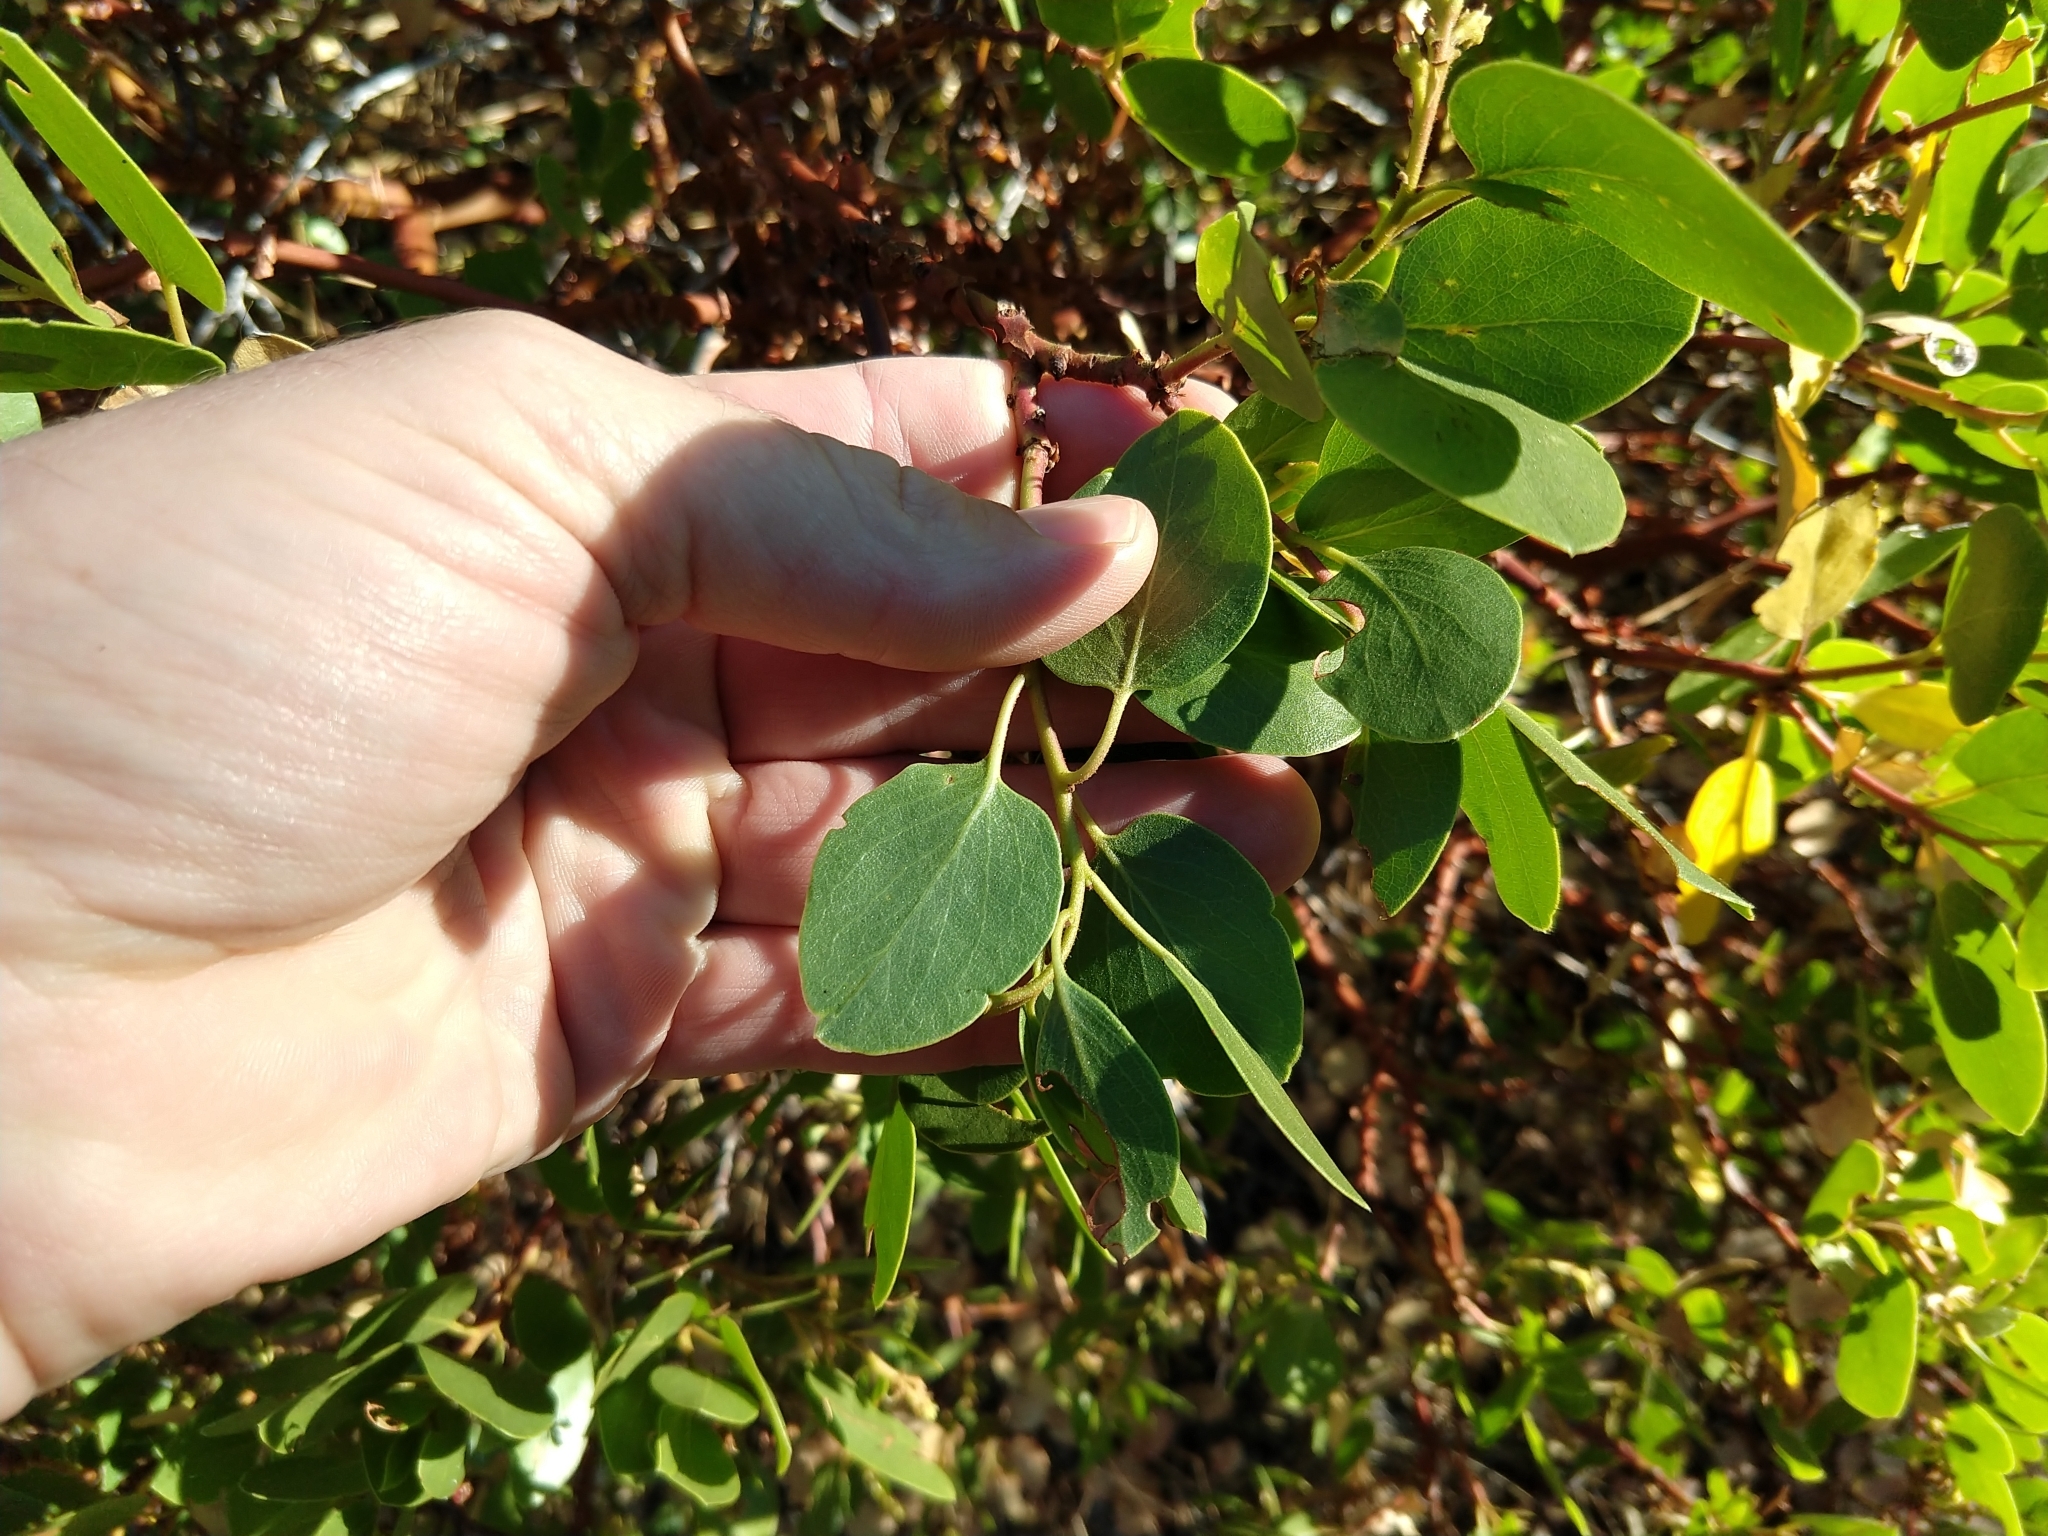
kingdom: Plantae
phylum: Tracheophyta
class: Magnoliopsida
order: Ericales
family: Ericaceae
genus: Arctostaphylos
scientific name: Arctostaphylos patula
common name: Green-leaf manzanita
